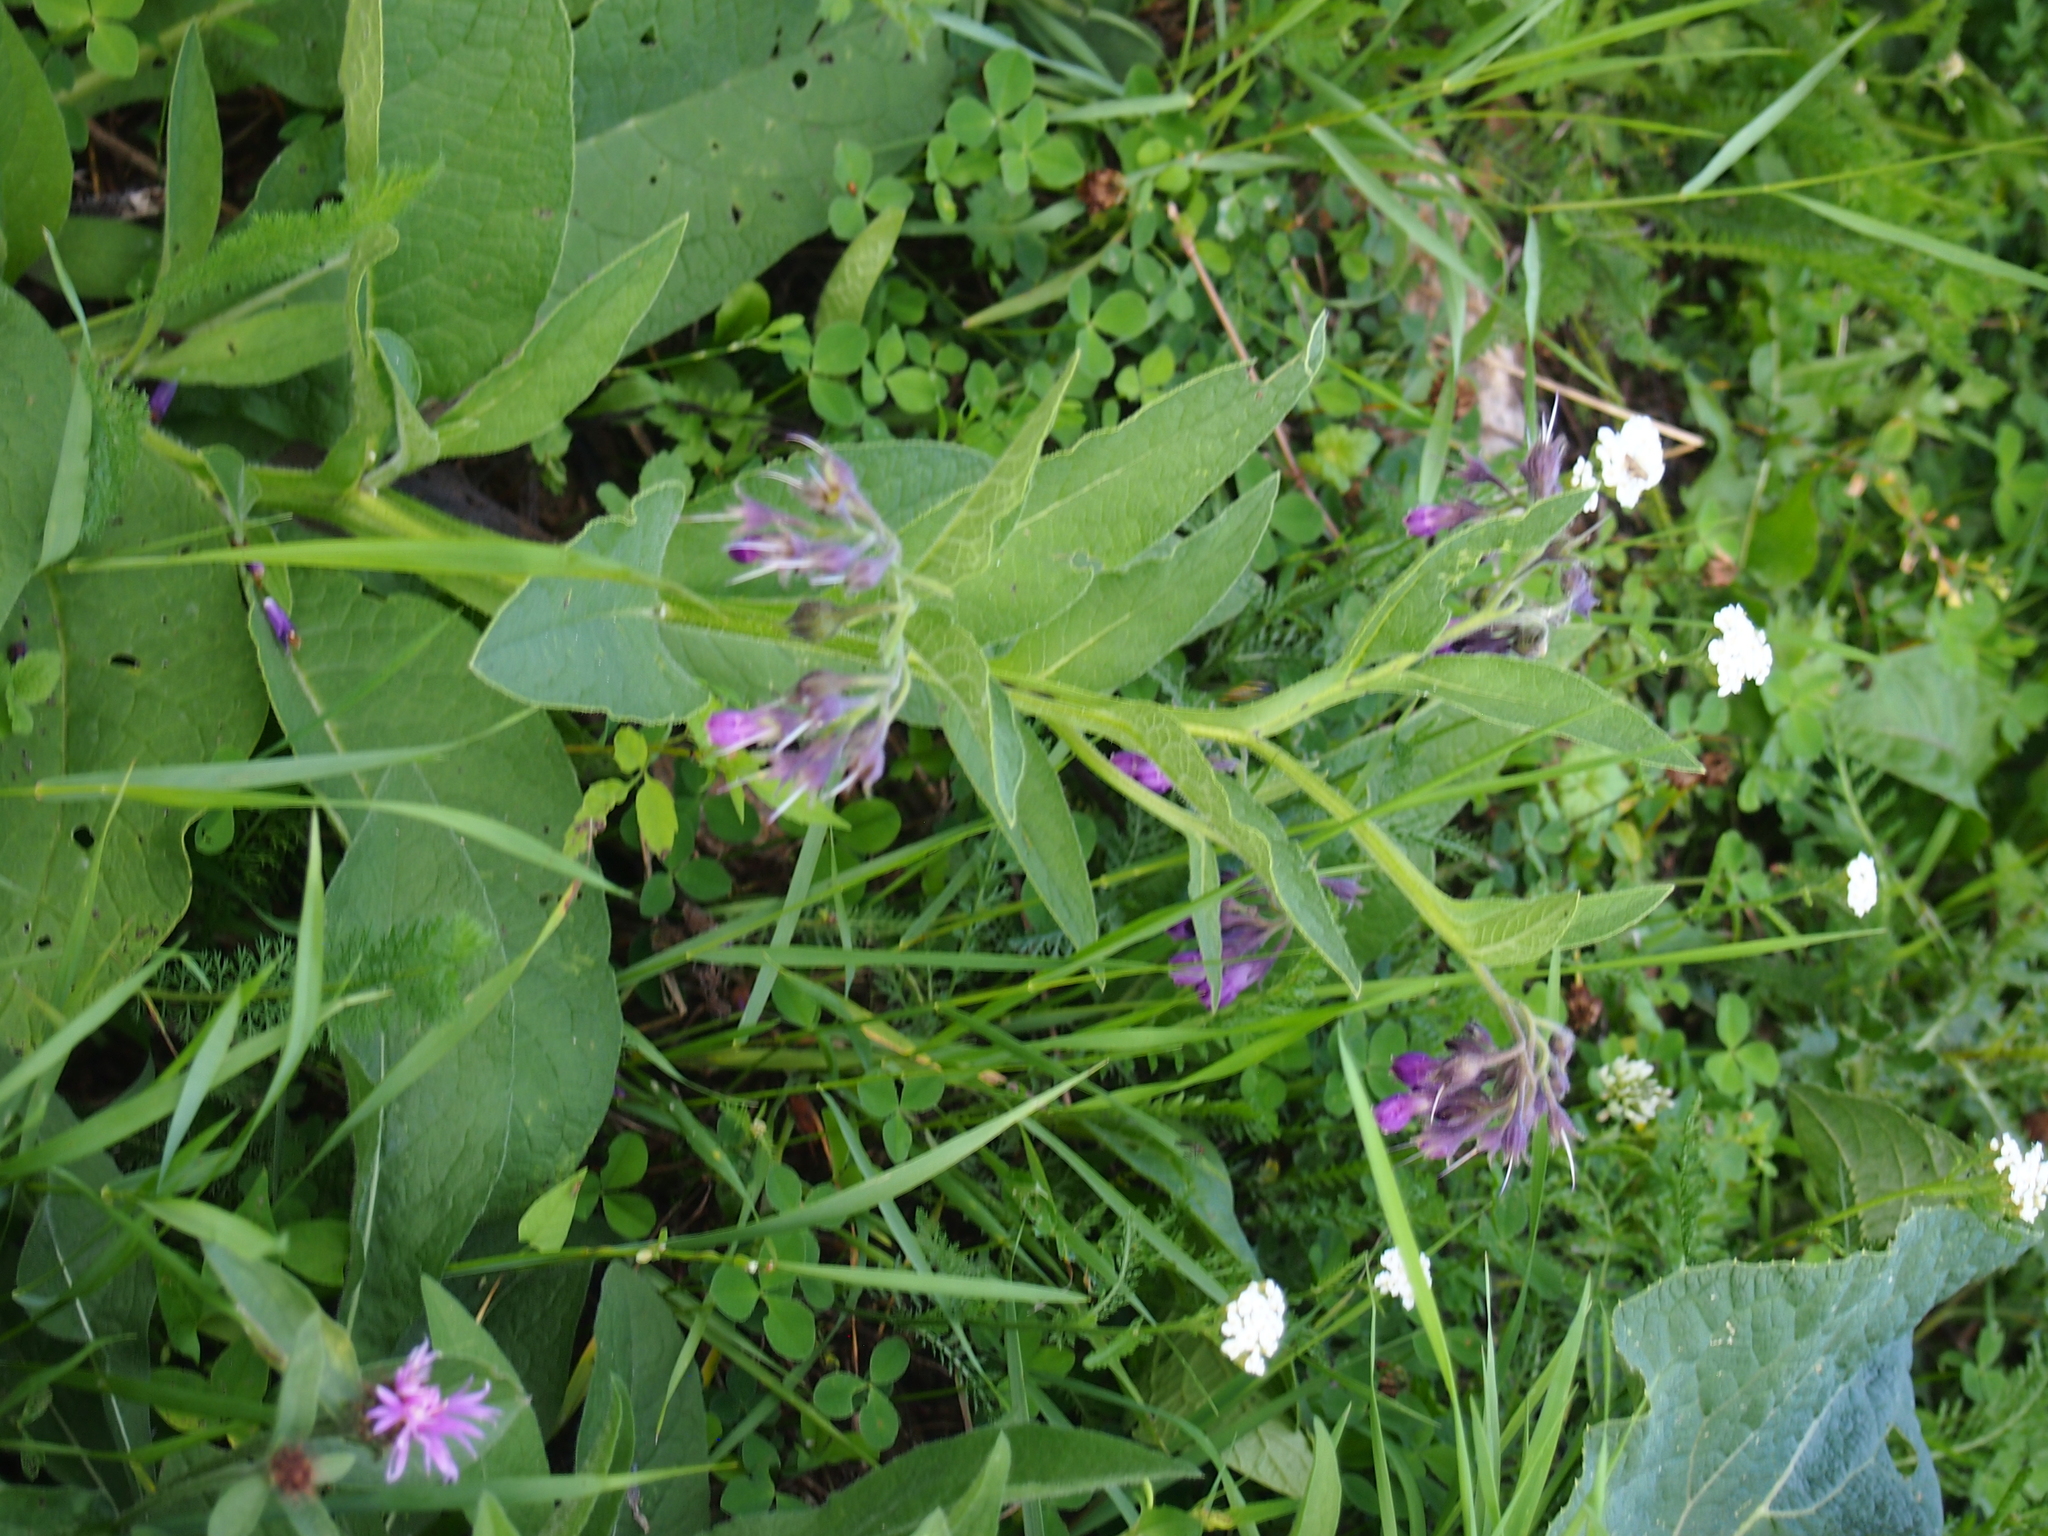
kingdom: Plantae
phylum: Tracheophyta
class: Magnoliopsida
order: Boraginales
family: Boraginaceae
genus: Symphytum
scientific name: Symphytum officinale
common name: Common comfrey
